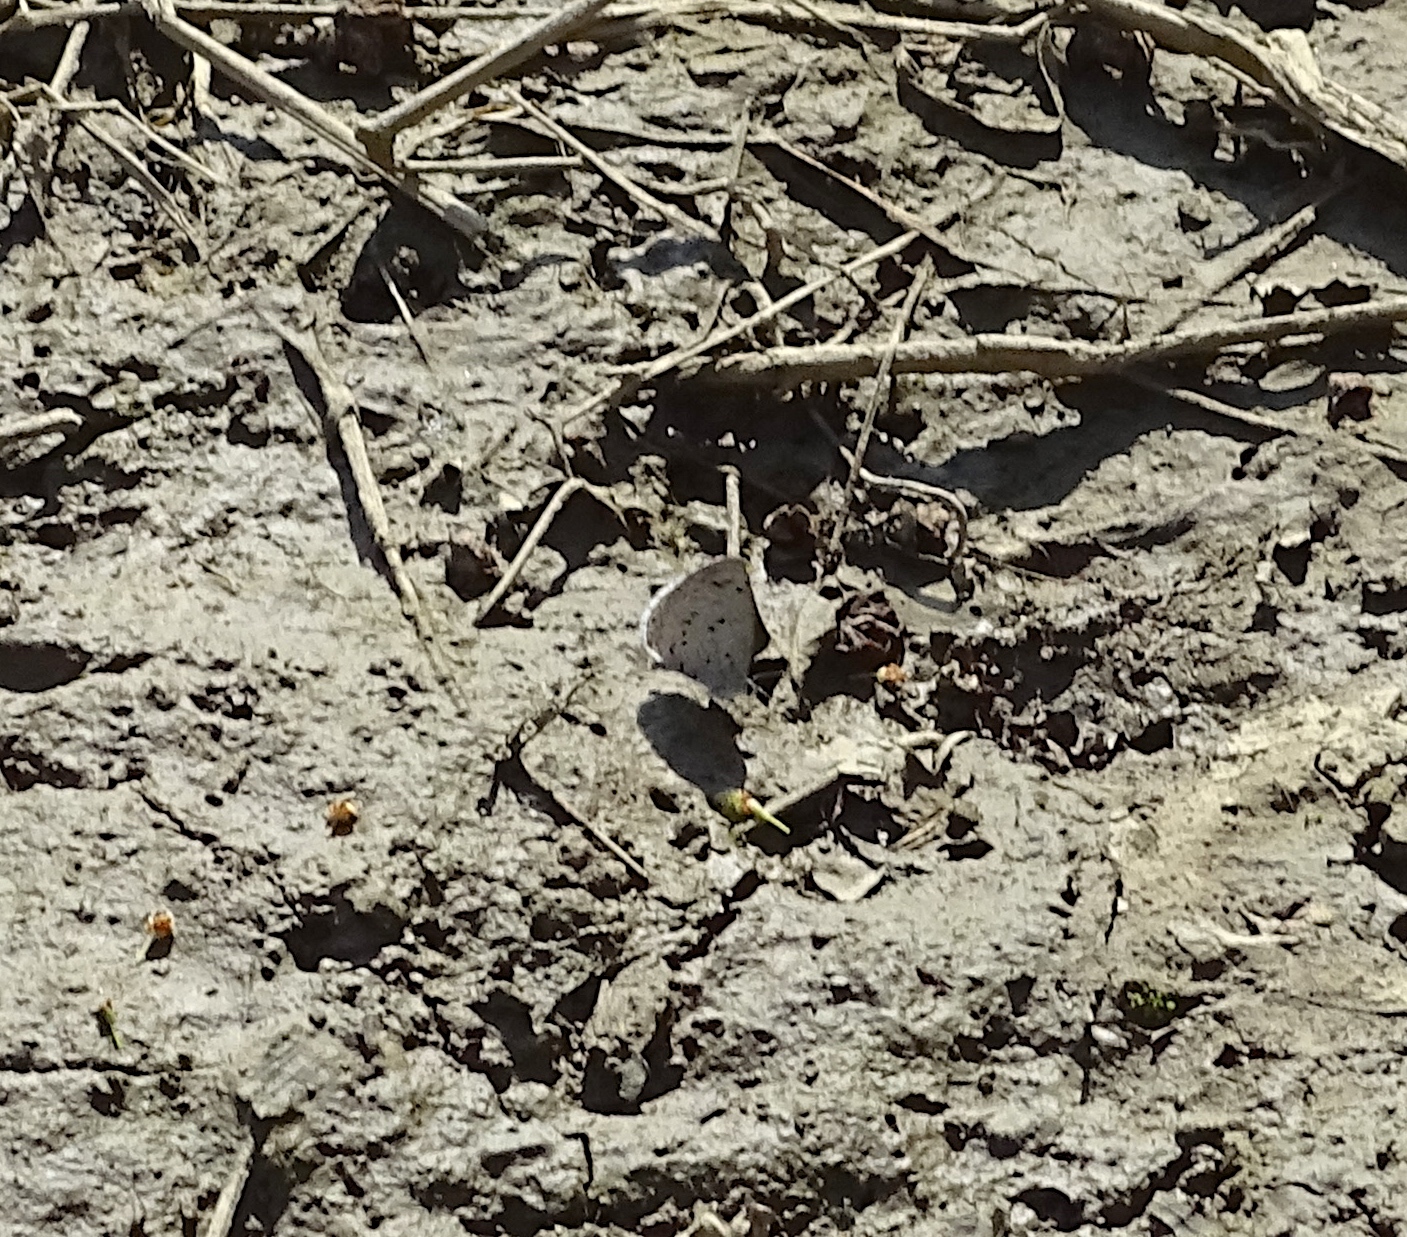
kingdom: Animalia
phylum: Arthropoda
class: Insecta
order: Lepidoptera
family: Lycaenidae
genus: Celastrina
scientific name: Celastrina ladon
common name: Spring azure
